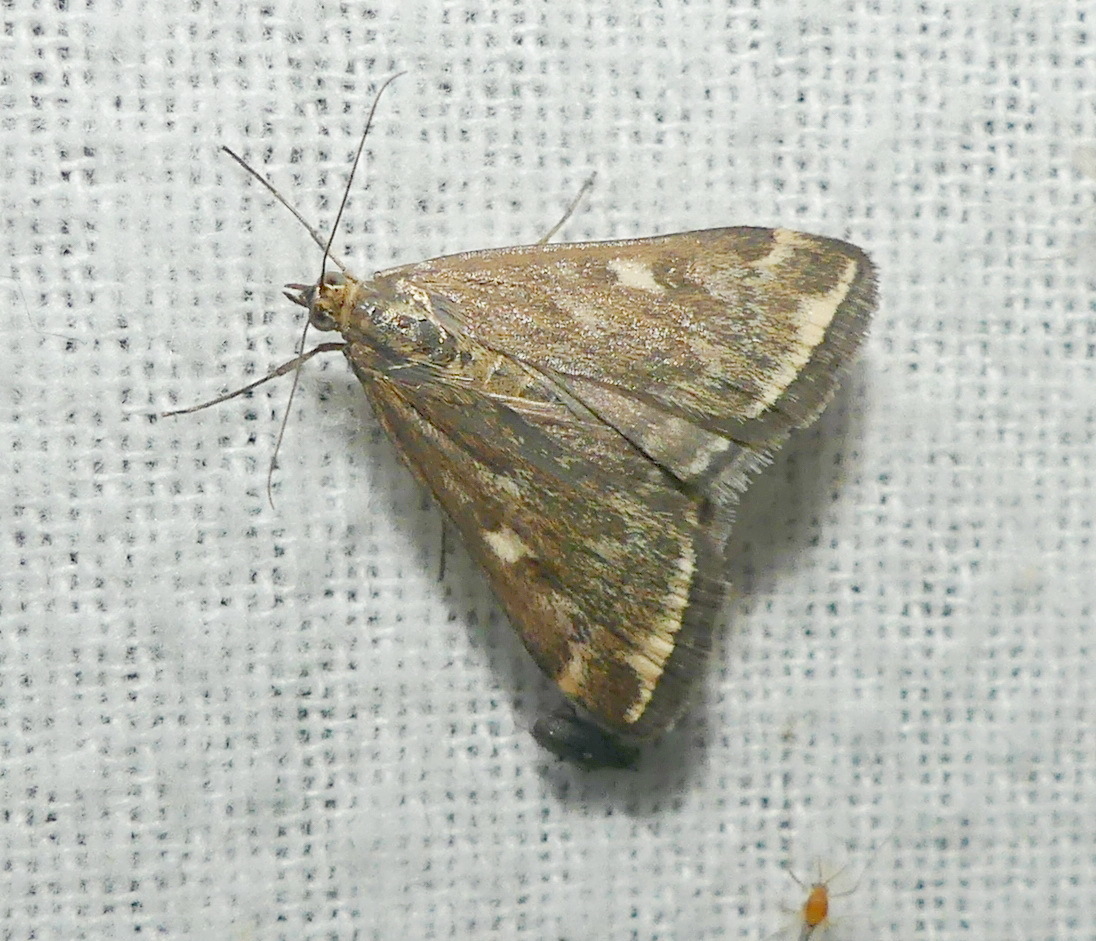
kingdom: Animalia
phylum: Arthropoda
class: Insecta
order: Lepidoptera
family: Crambidae
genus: Loxostege
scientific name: Loxostege
